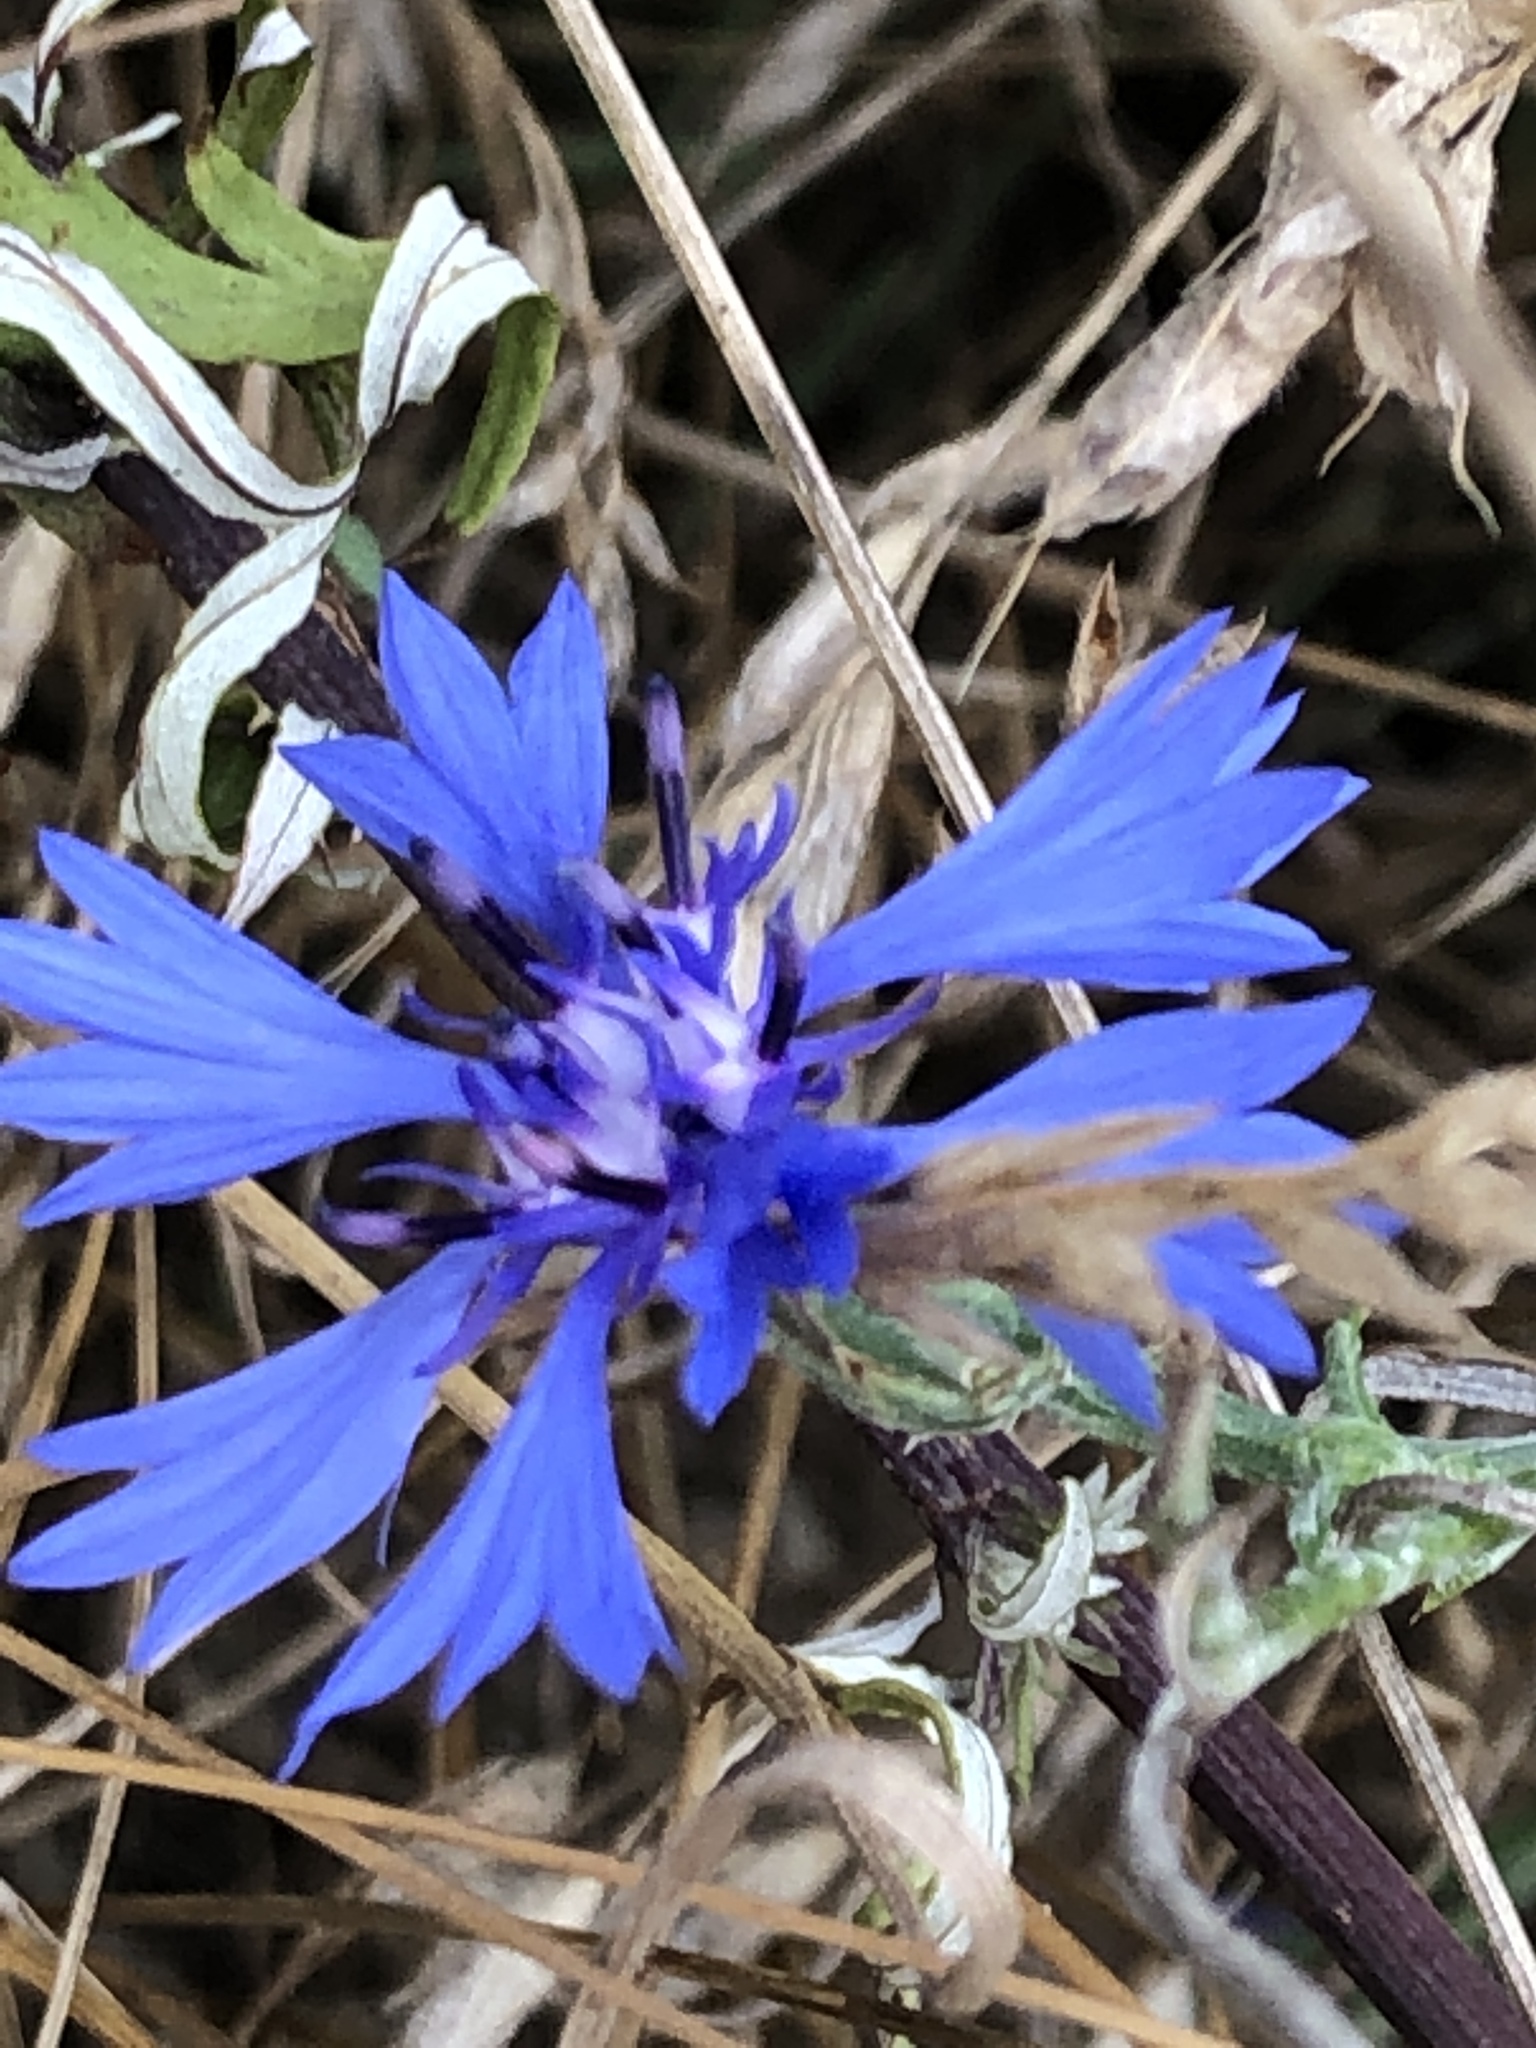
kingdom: Plantae
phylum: Tracheophyta
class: Magnoliopsida
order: Asterales
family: Asteraceae
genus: Centaurea
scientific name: Centaurea cyanus
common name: Cornflower
